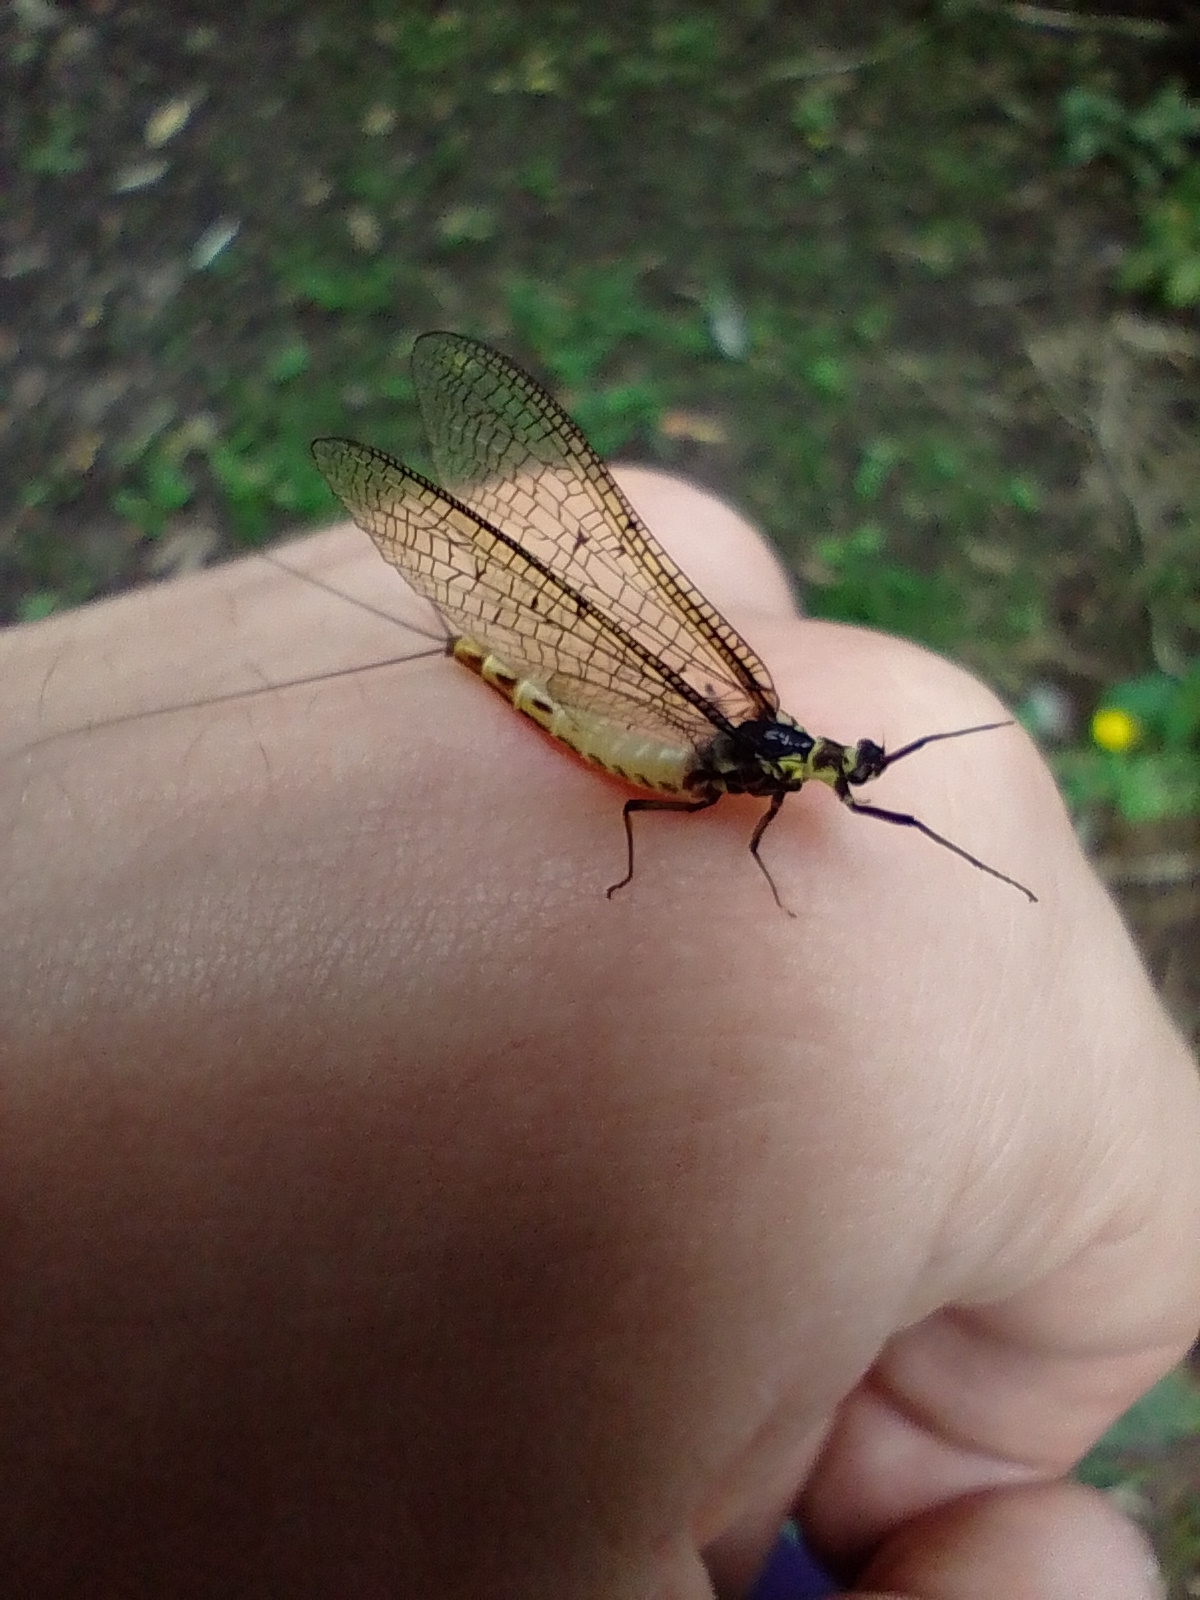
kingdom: Animalia
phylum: Arthropoda
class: Insecta
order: Ephemeroptera
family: Ephemeridae
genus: Ephemera
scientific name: Ephemera danica
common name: Green dun
